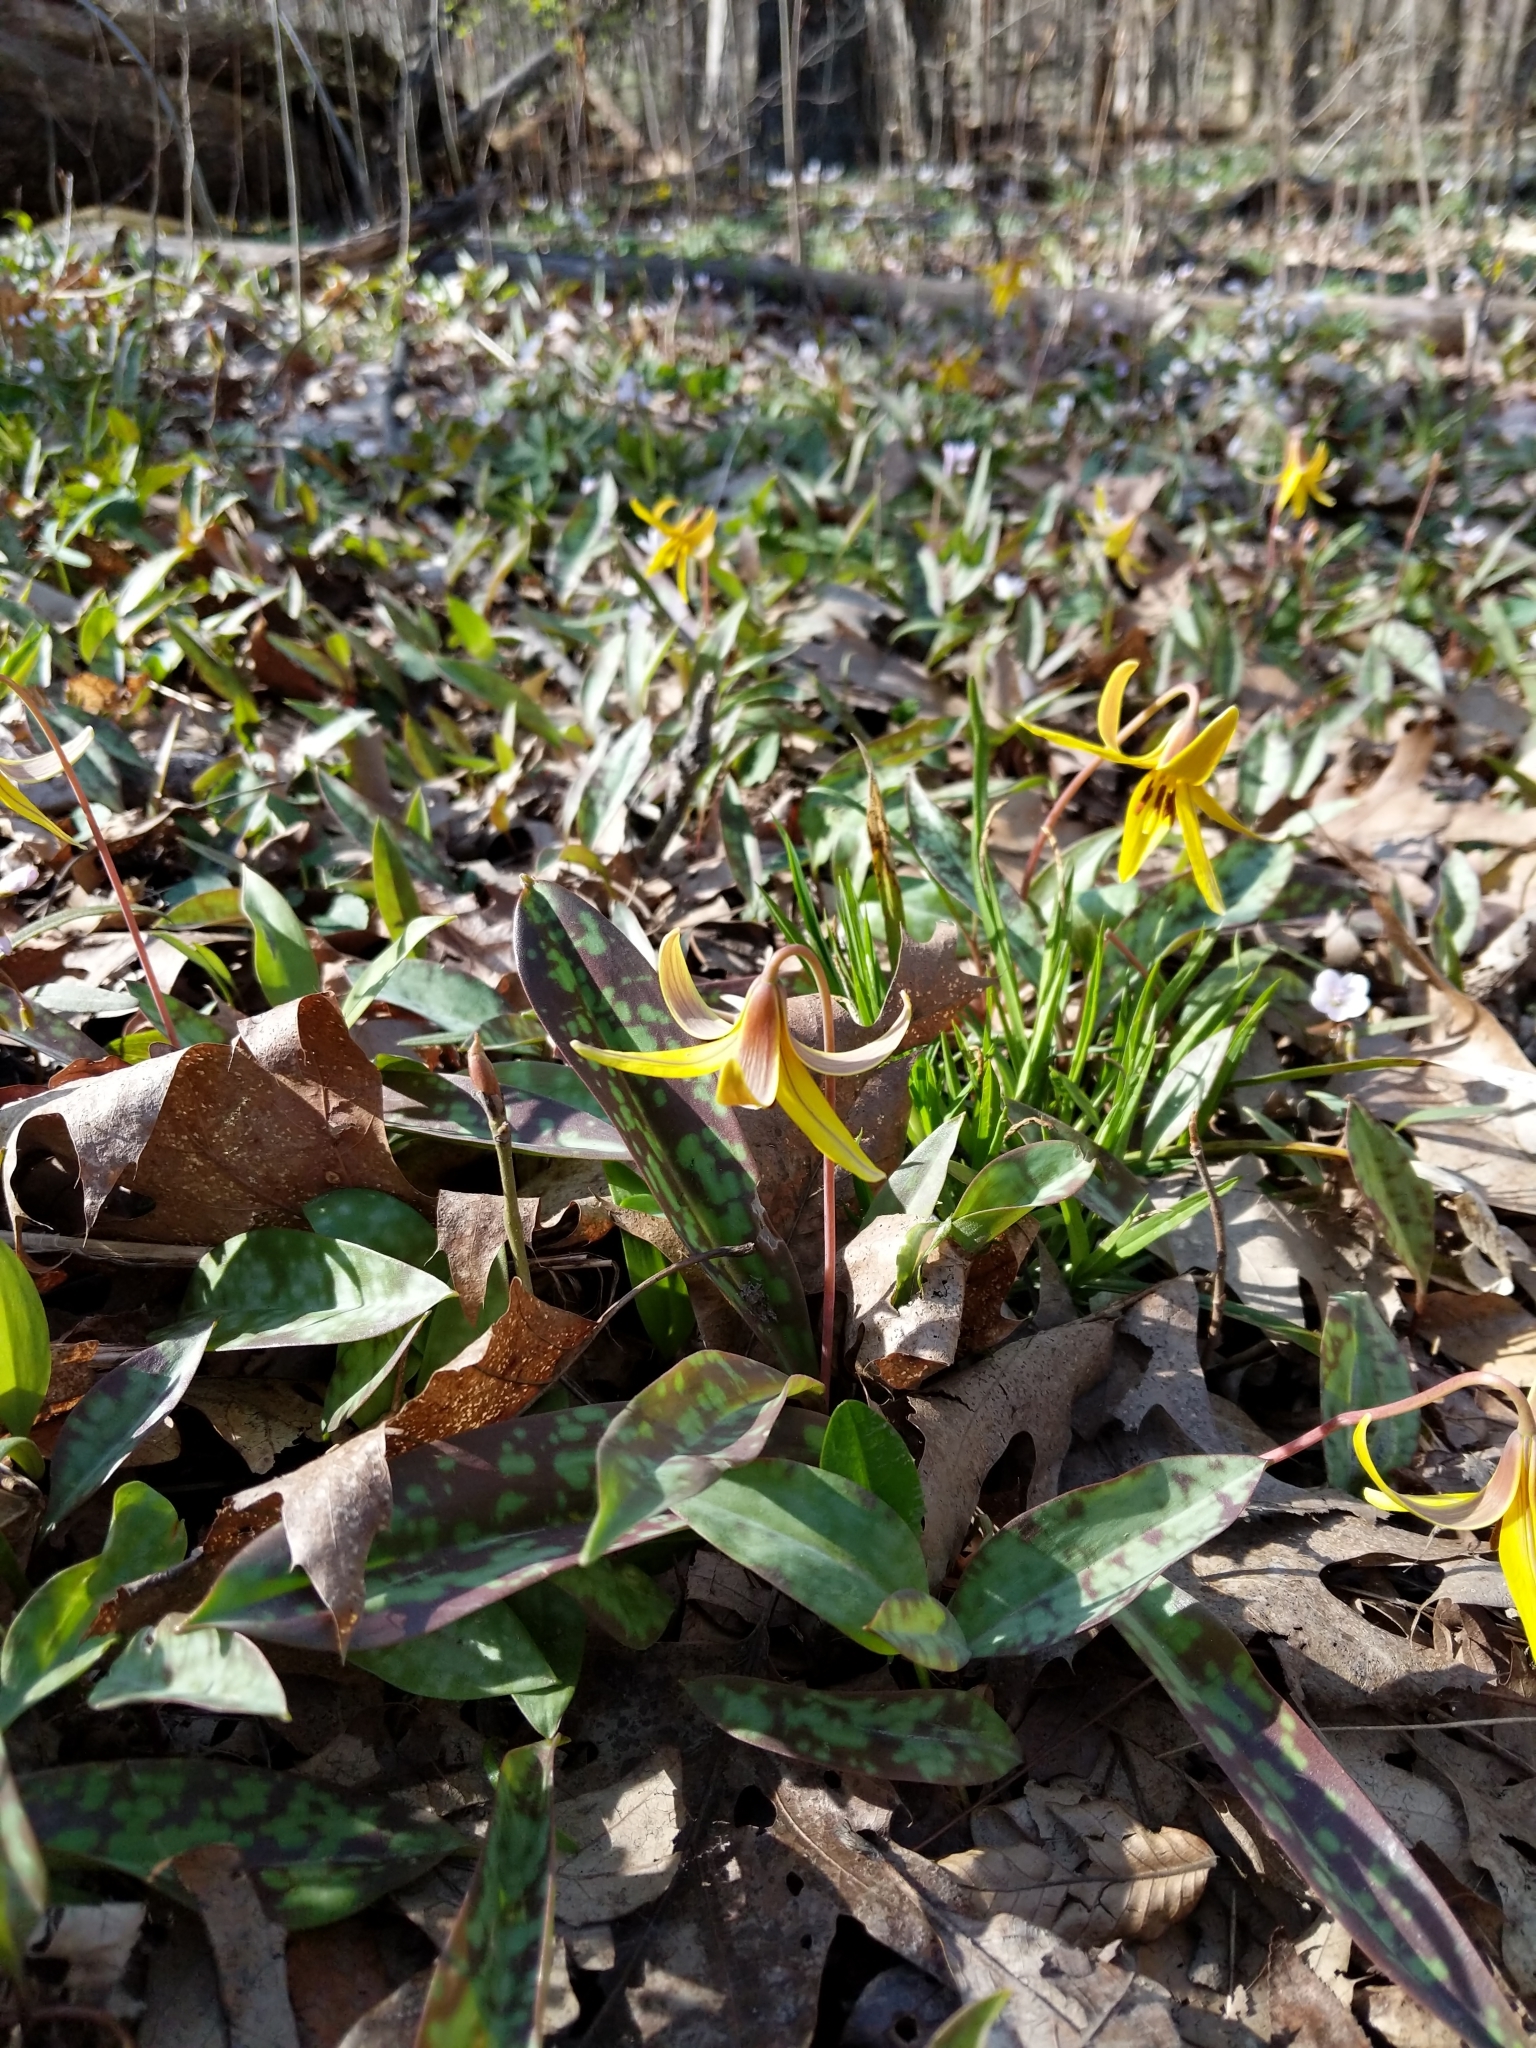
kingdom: Plantae
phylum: Tracheophyta
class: Liliopsida
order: Liliales
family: Liliaceae
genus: Erythronium
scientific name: Erythronium americanum
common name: Yellow adder's-tongue
